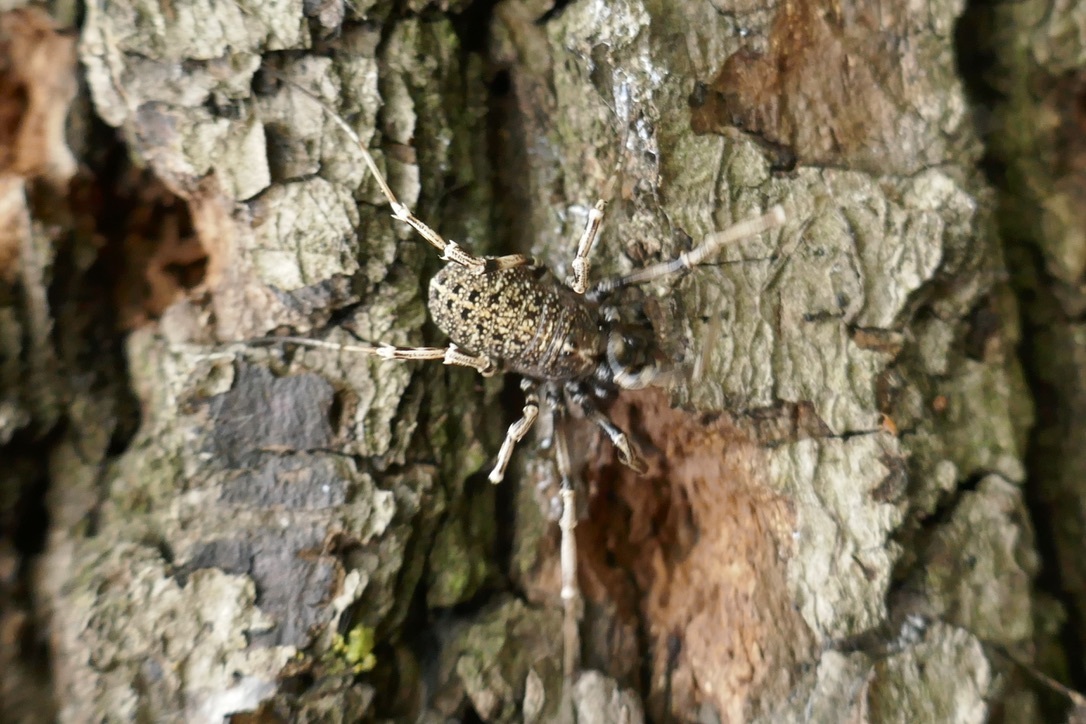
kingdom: Animalia
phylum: Arthropoda
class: Arachnida
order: Opiliones
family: Phalangiidae
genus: Egaenus
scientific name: Egaenus convexus
